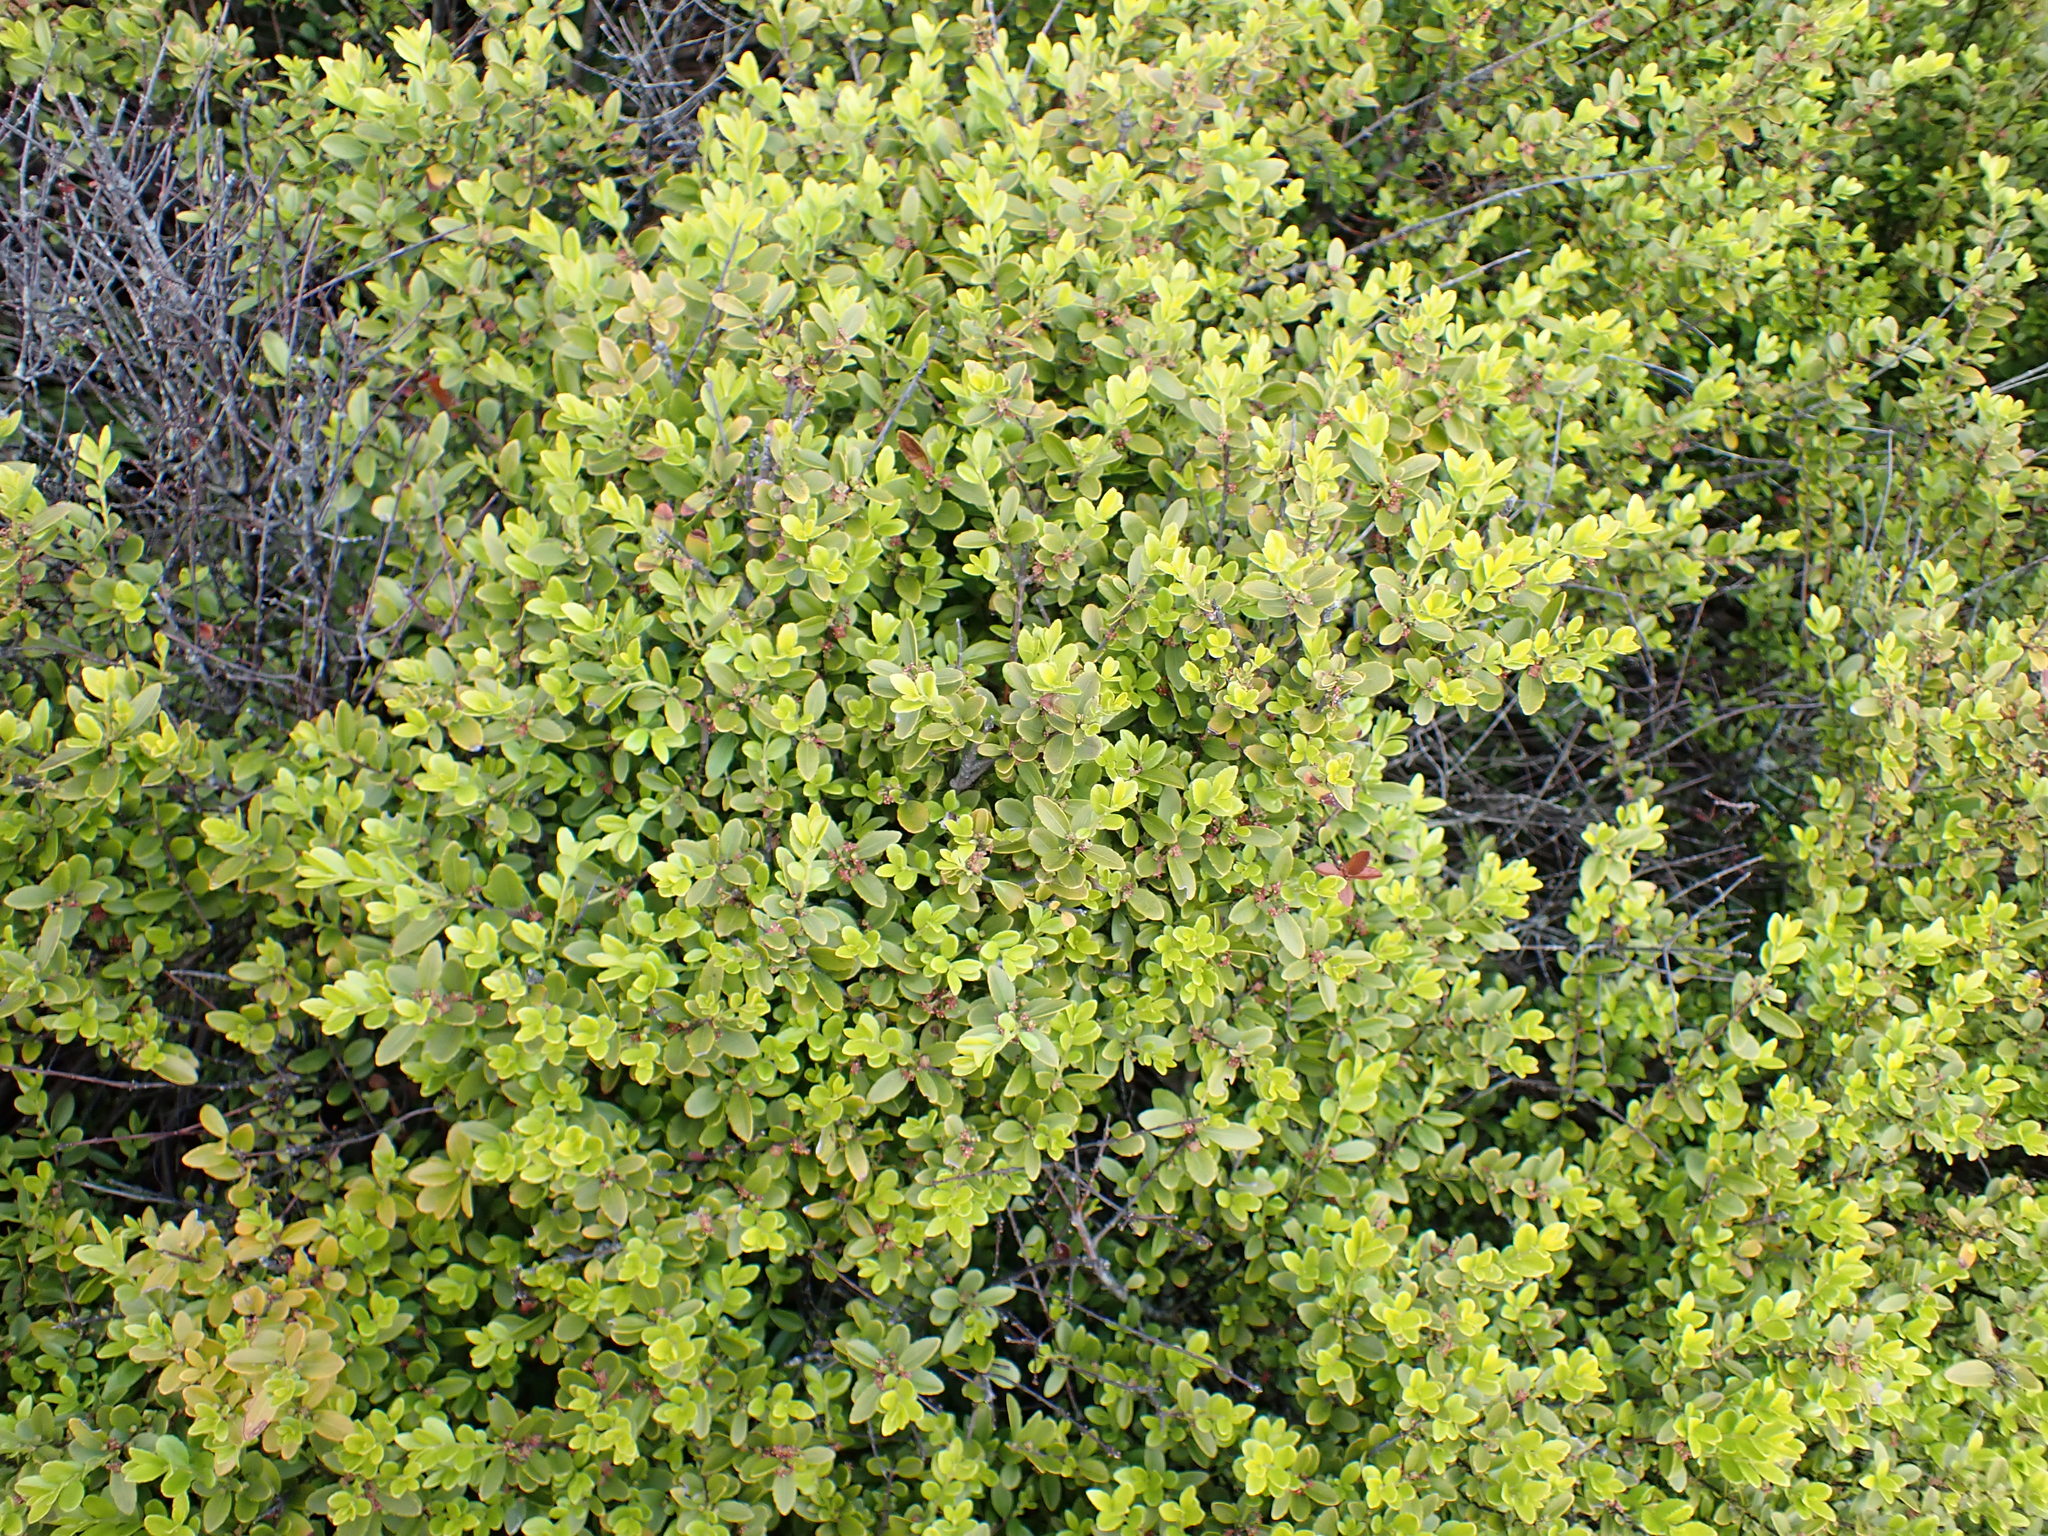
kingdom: Plantae
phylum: Tracheophyta
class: Magnoliopsida
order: Celastrales
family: Celastraceae
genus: Paxistima
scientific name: Paxistima myrsinites
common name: Mountain-lover
